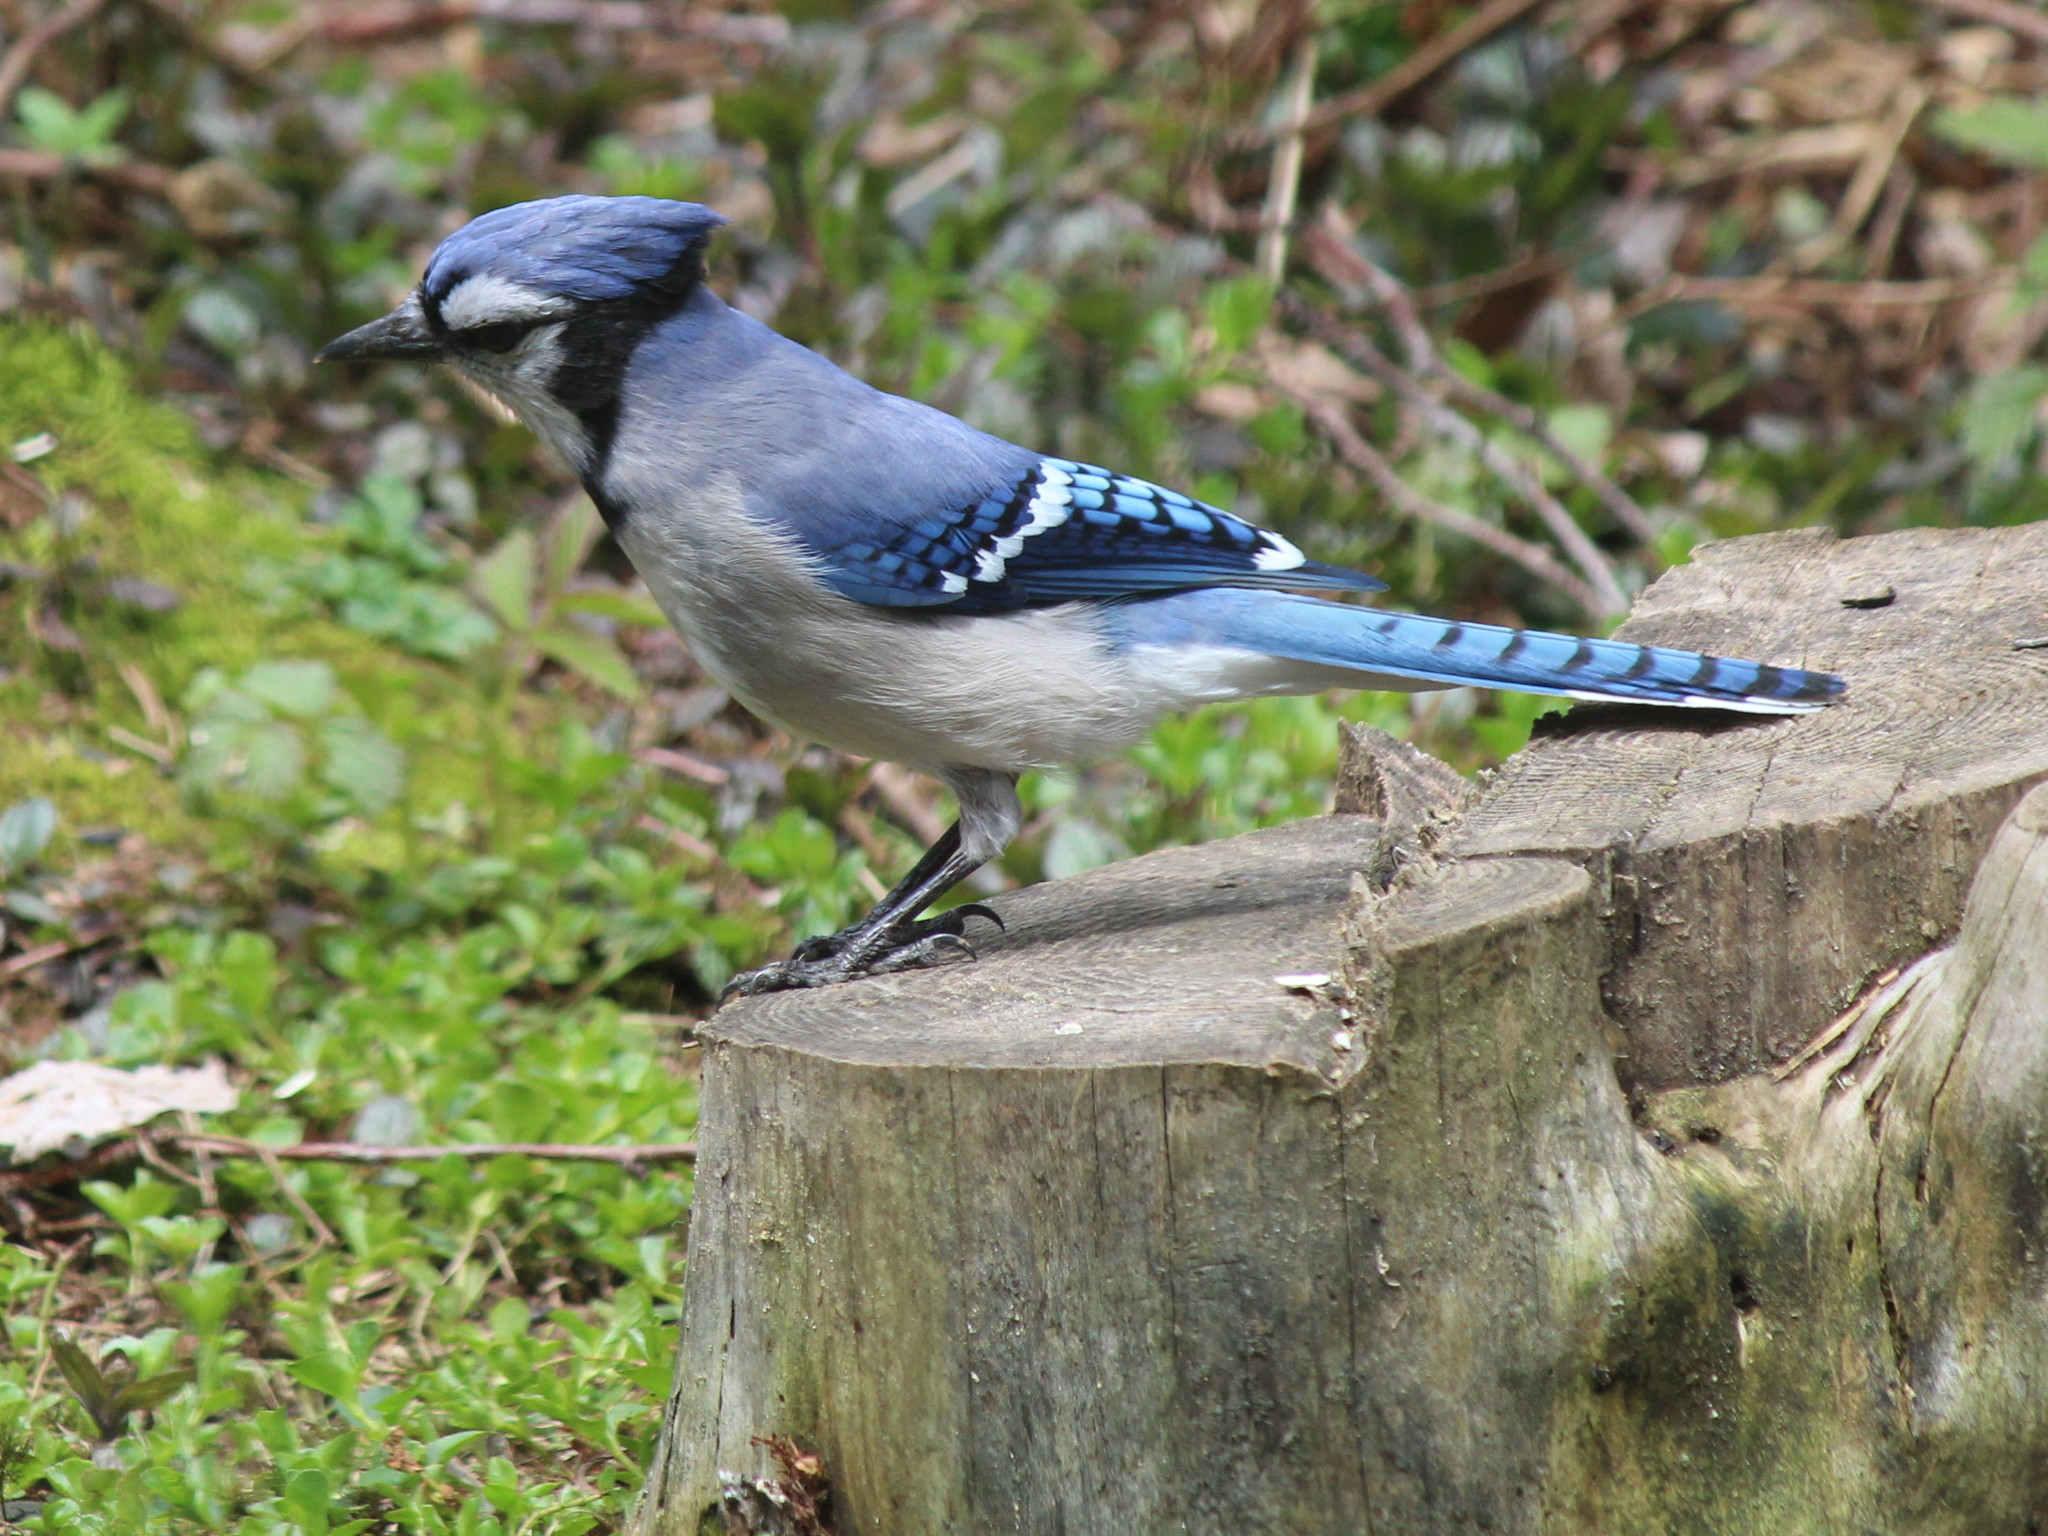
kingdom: Animalia
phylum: Chordata
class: Aves
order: Passeriformes
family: Corvidae
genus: Cyanocitta
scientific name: Cyanocitta cristata
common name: Blue jay
